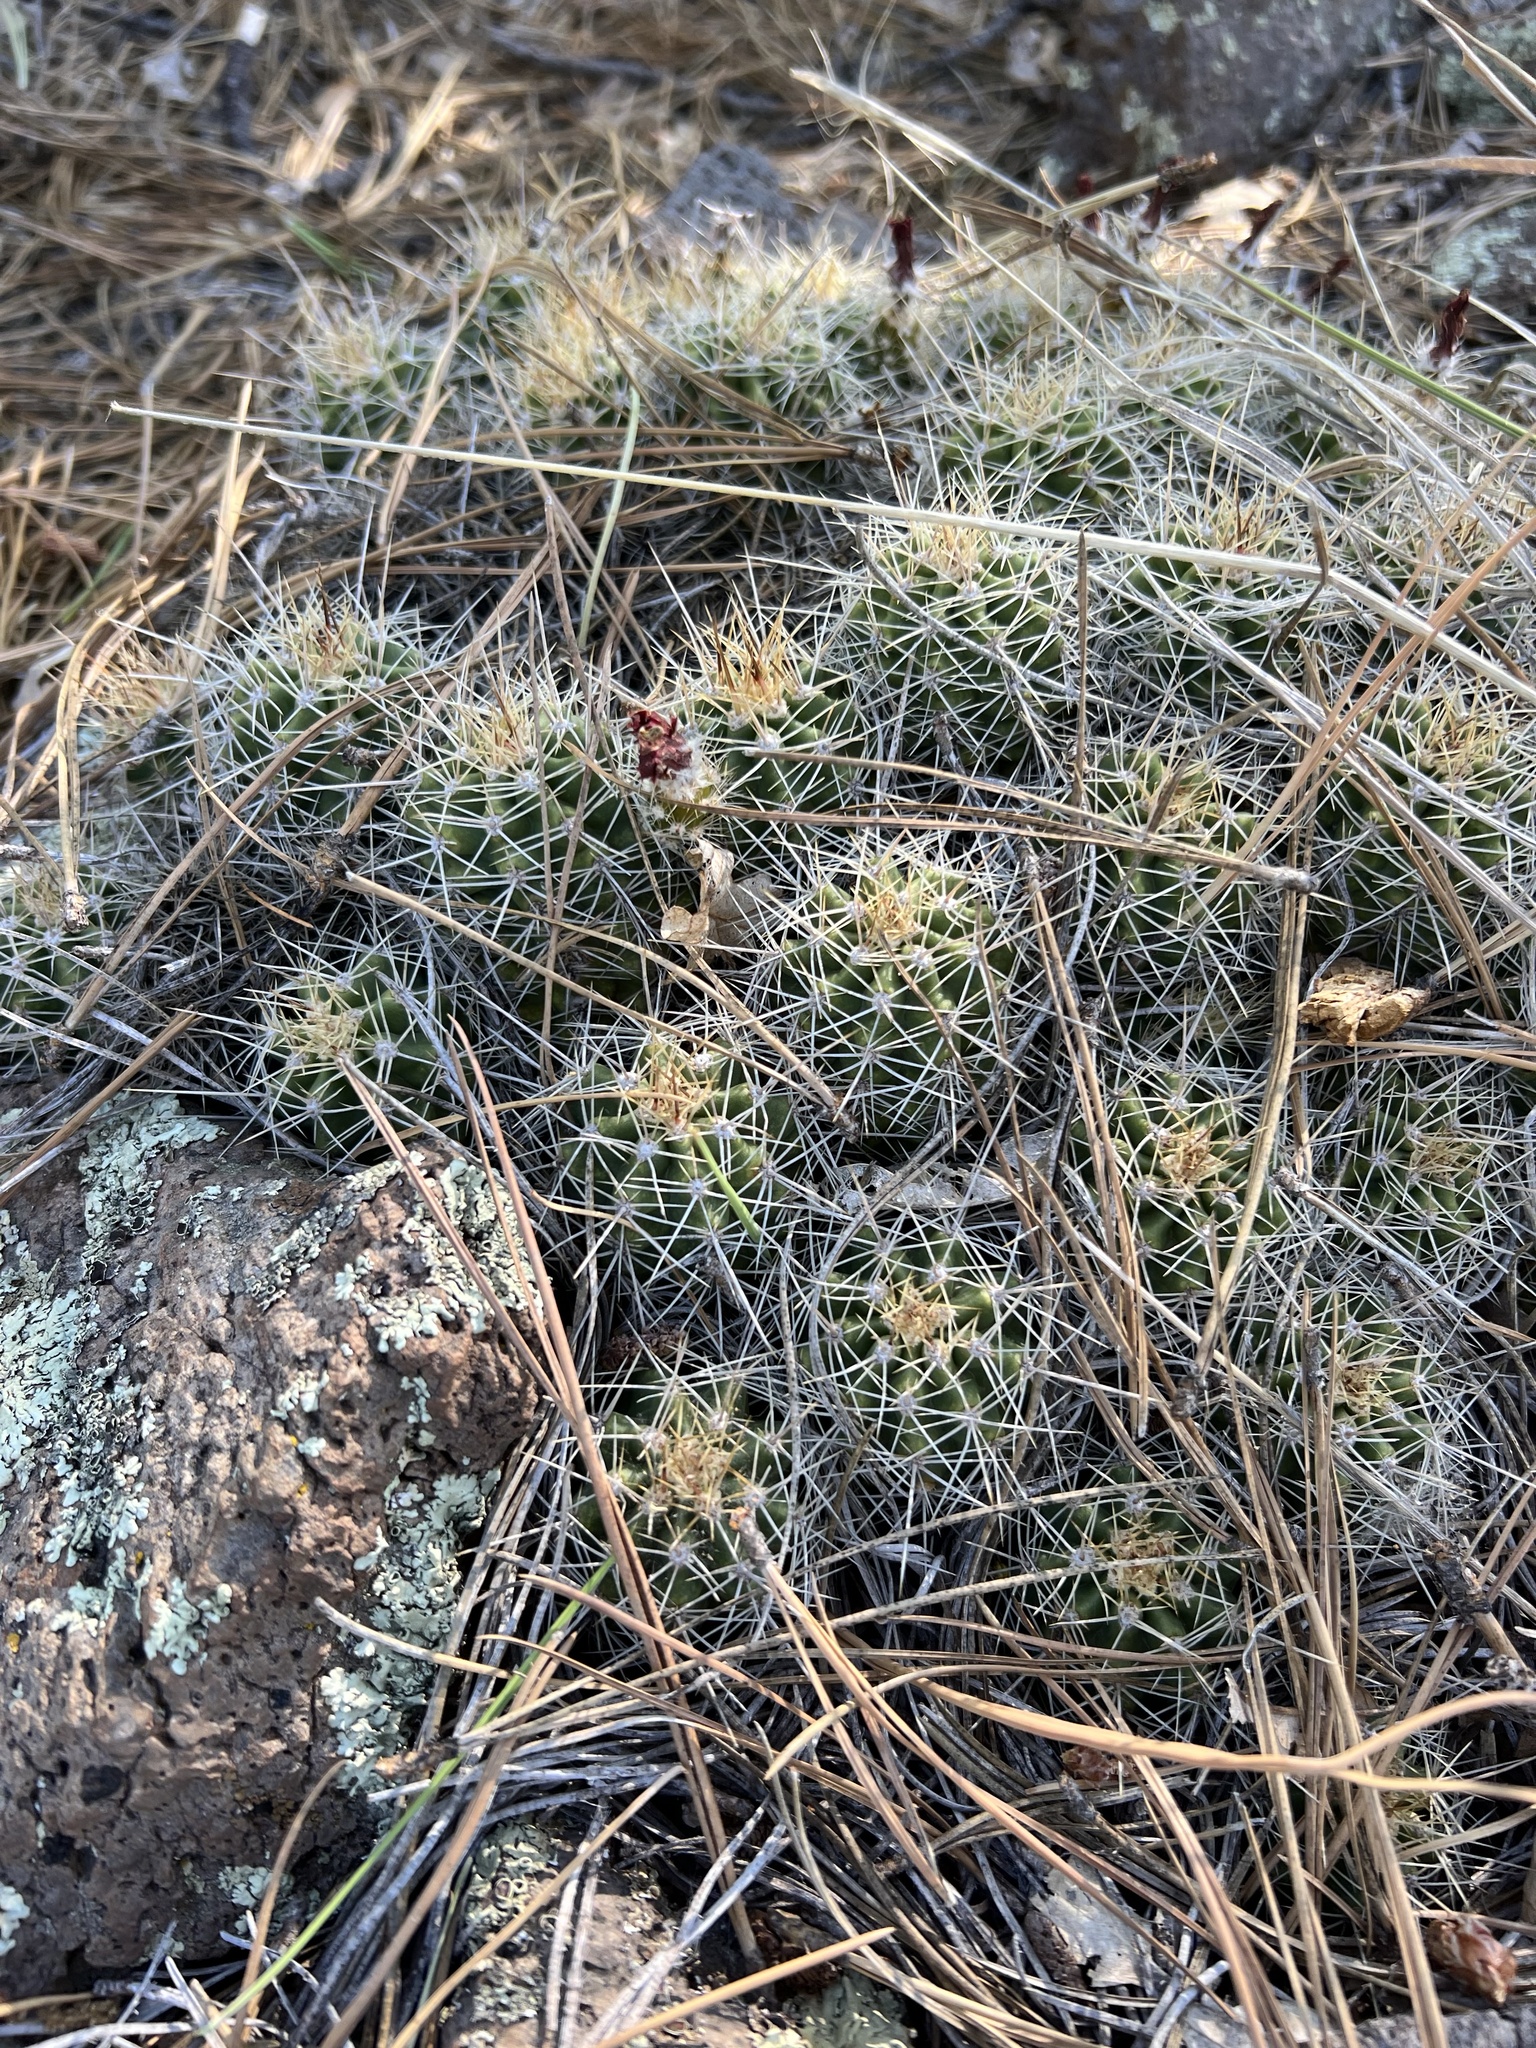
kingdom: Plantae
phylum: Tracheophyta
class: Magnoliopsida
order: Caryophyllales
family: Cactaceae
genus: Echinocereus
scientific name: Echinocereus bakeri
